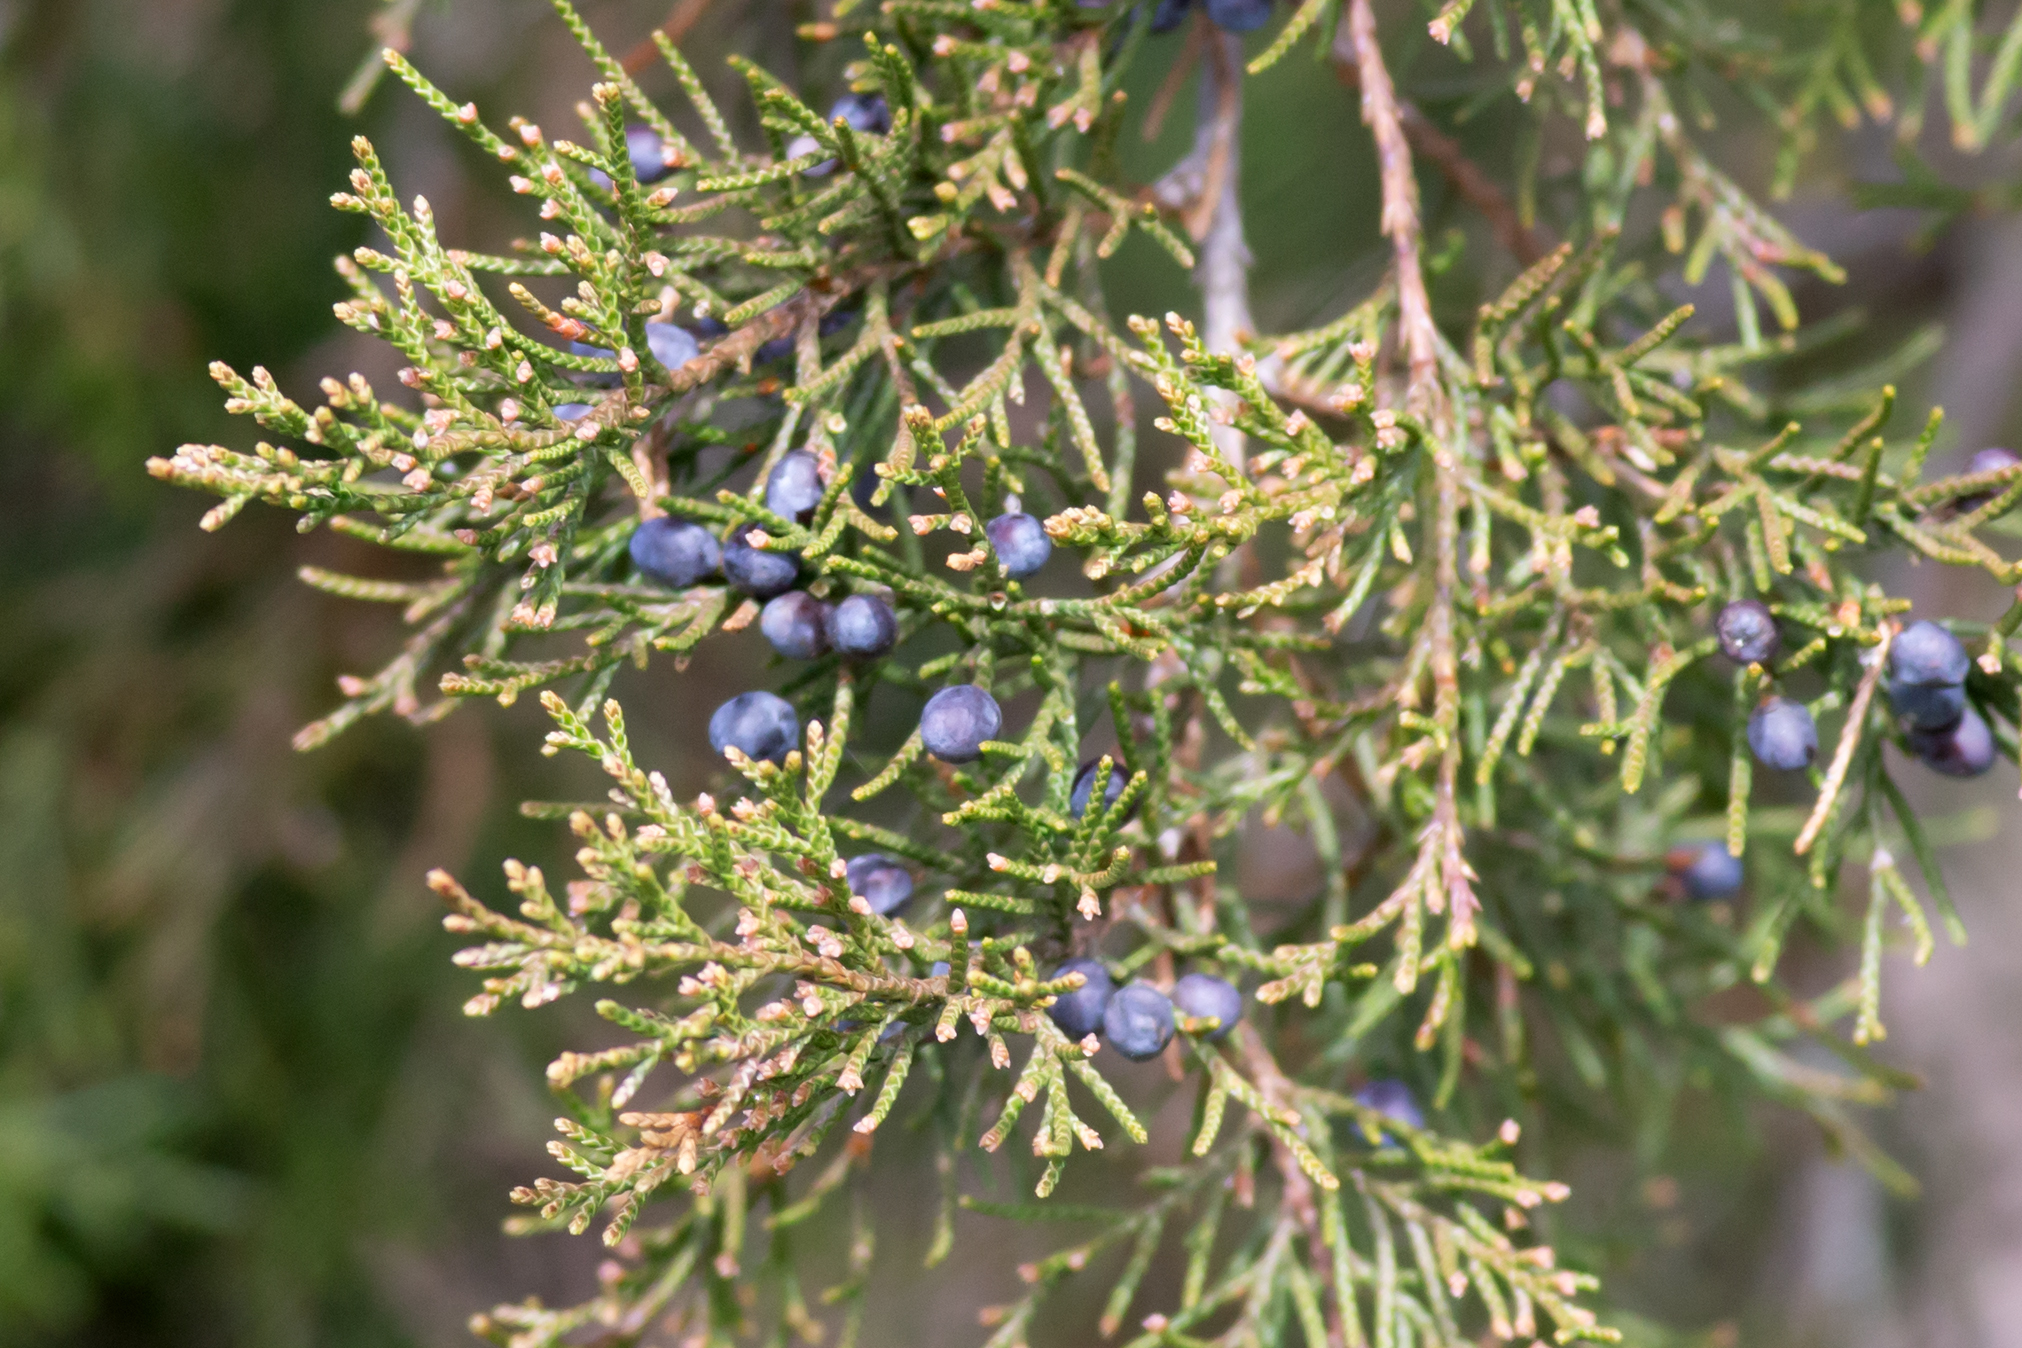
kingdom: Plantae
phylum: Tracheophyta
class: Pinopsida
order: Pinales
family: Cupressaceae
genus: Juniperus
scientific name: Juniperus virginiana
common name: Red juniper
